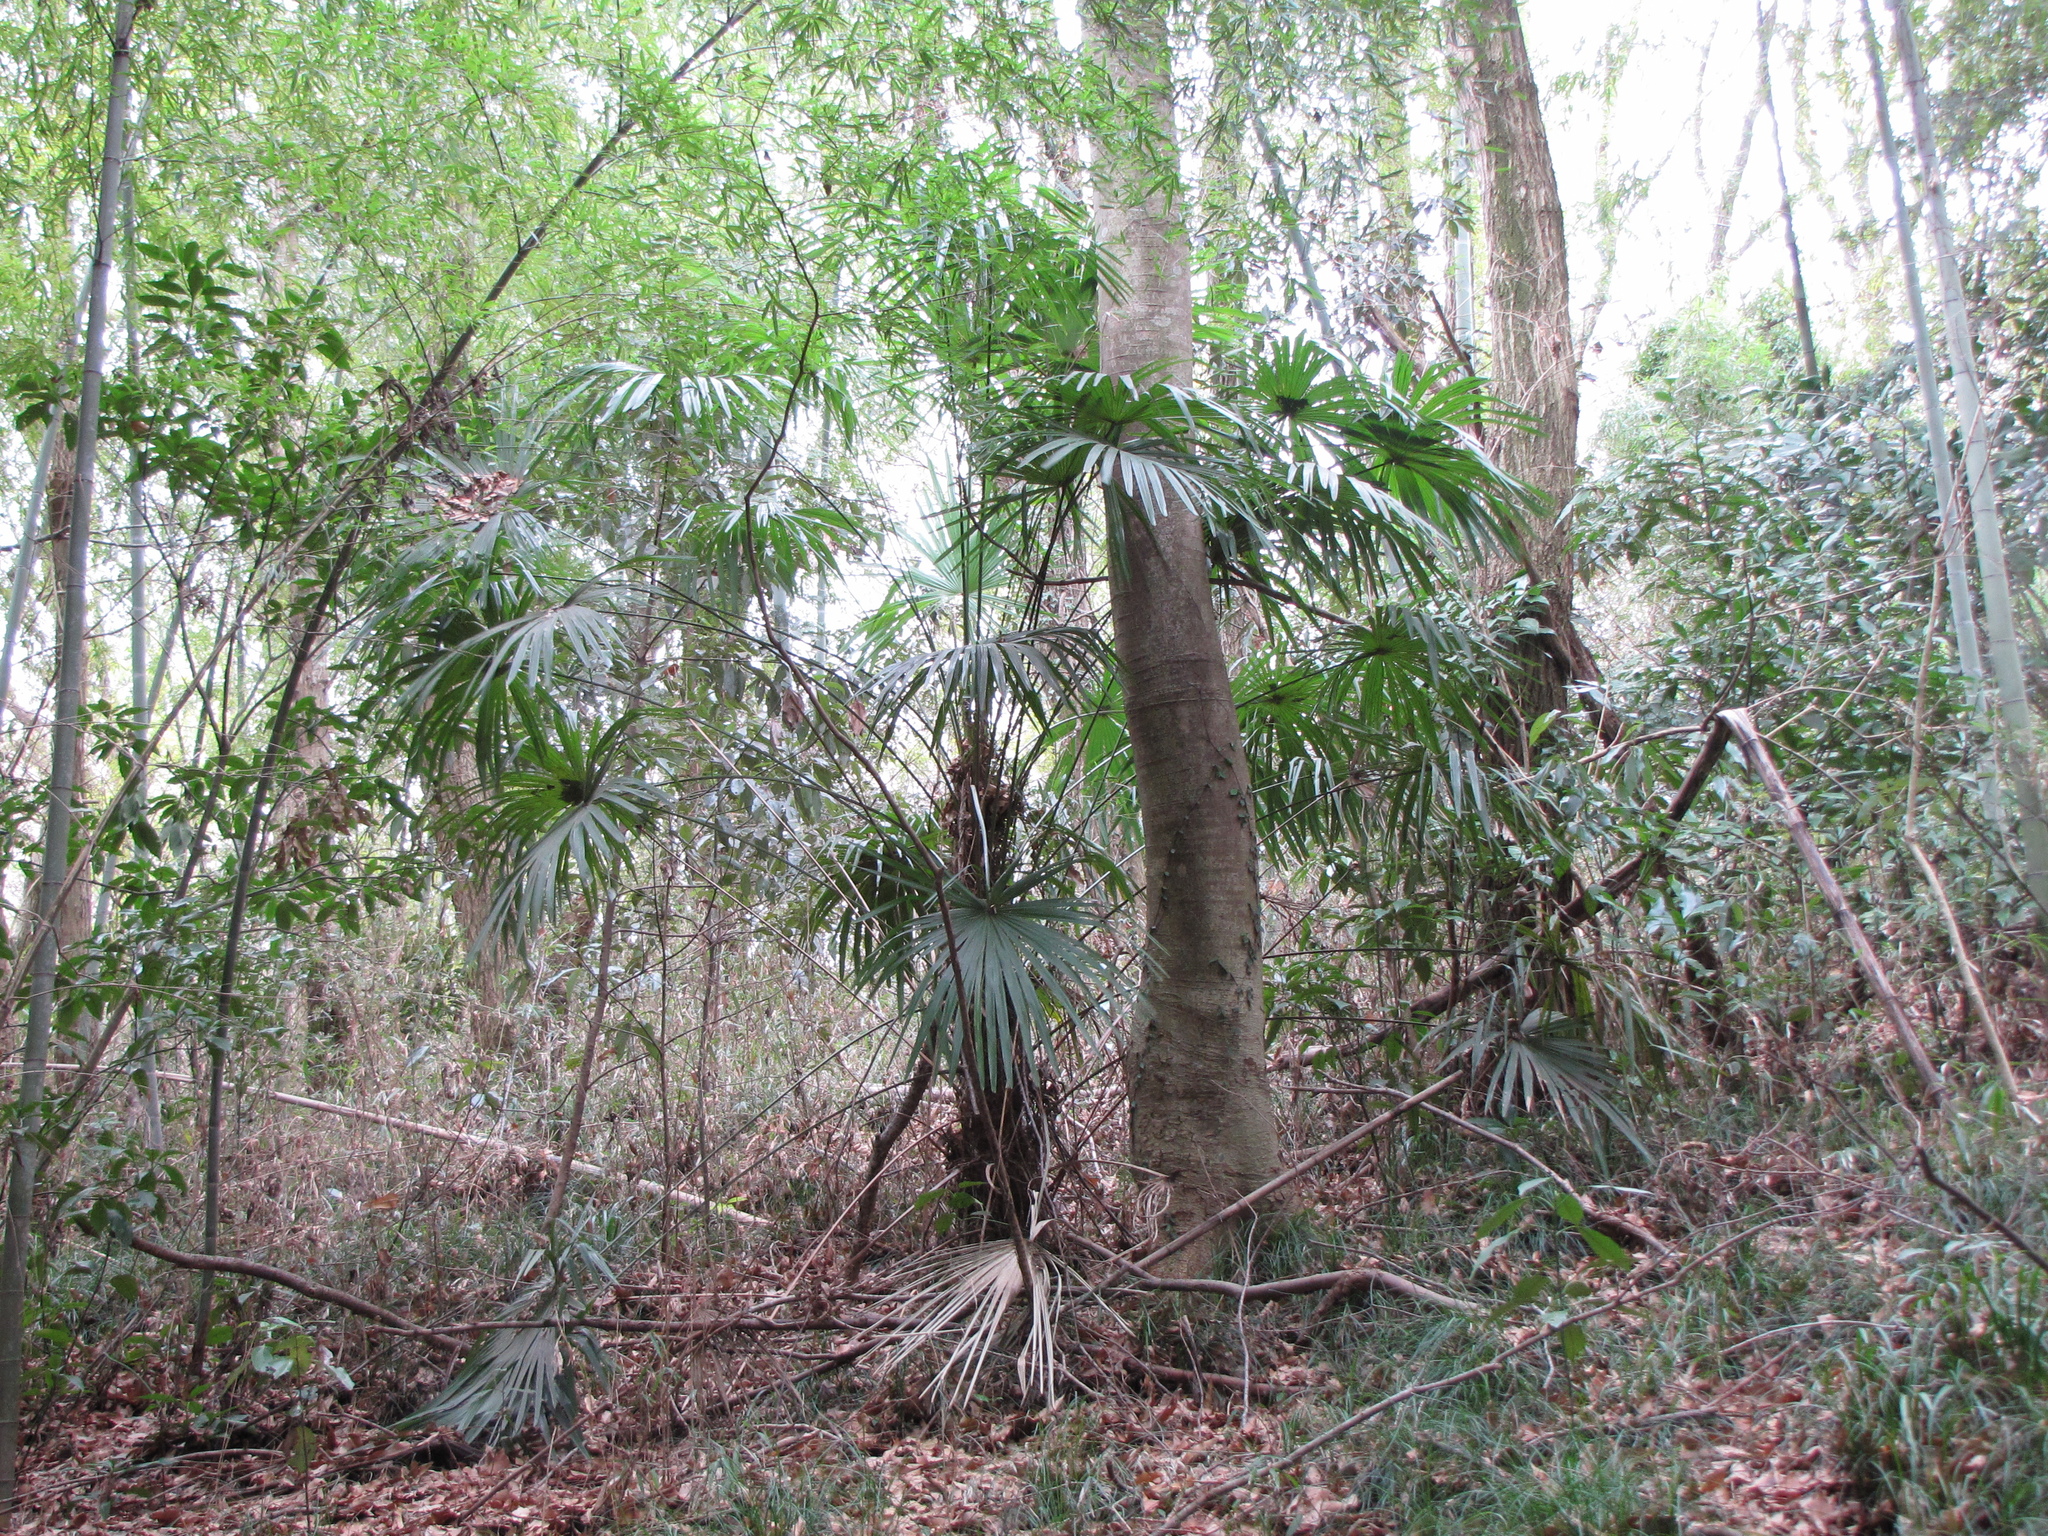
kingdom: Plantae
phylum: Tracheophyta
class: Liliopsida
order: Arecales
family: Arecaceae
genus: Trachycarpus
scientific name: Trachycarpus fortunei
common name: Chusan palm
